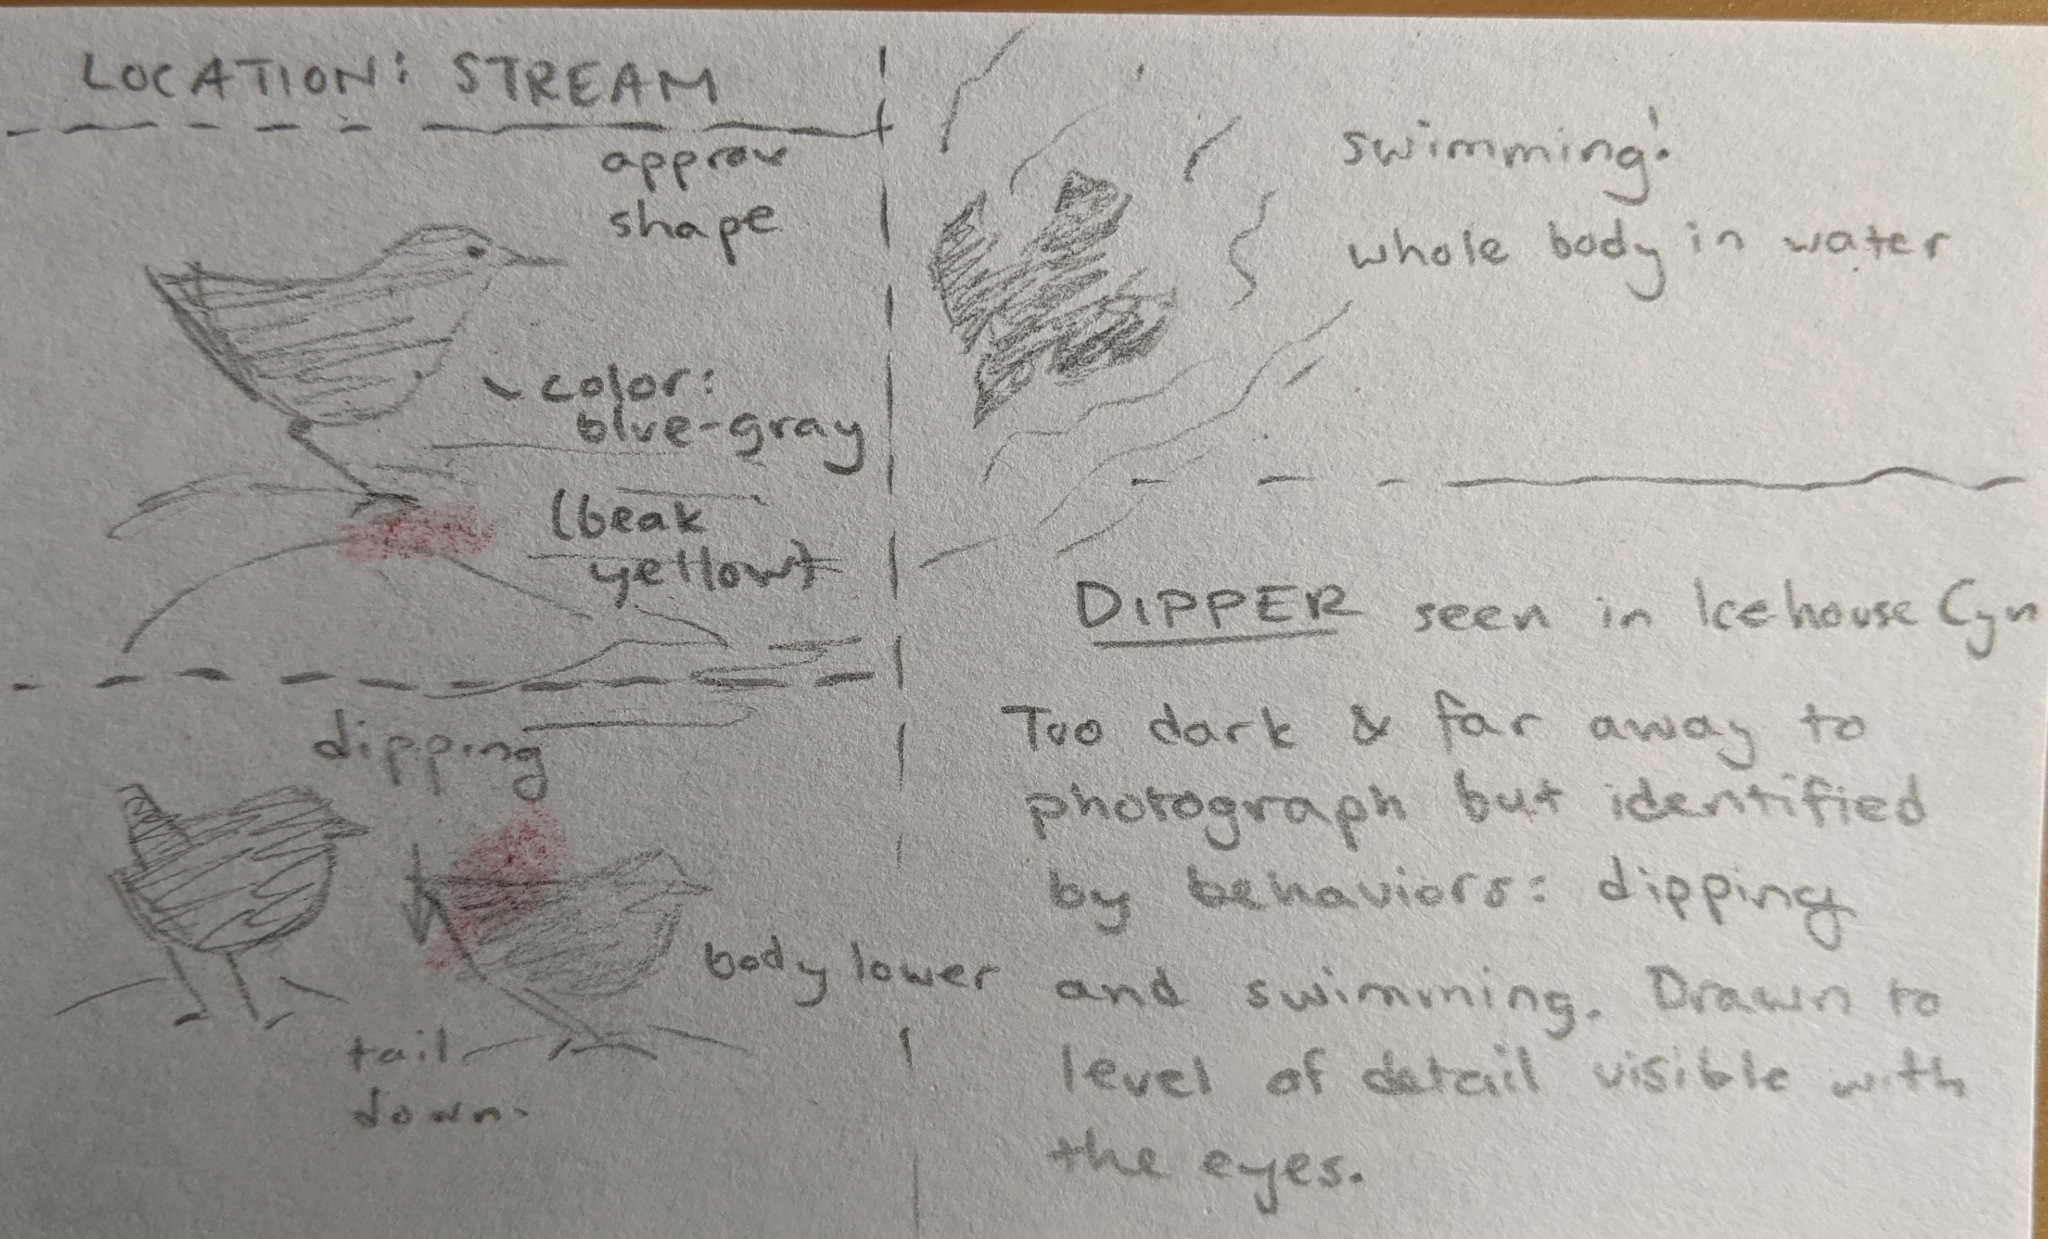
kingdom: Animalia
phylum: Chordata
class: Aves
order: Passeriformes
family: Cinclidae
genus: Cinclus
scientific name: Cinclus mexicanus
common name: American dipper
